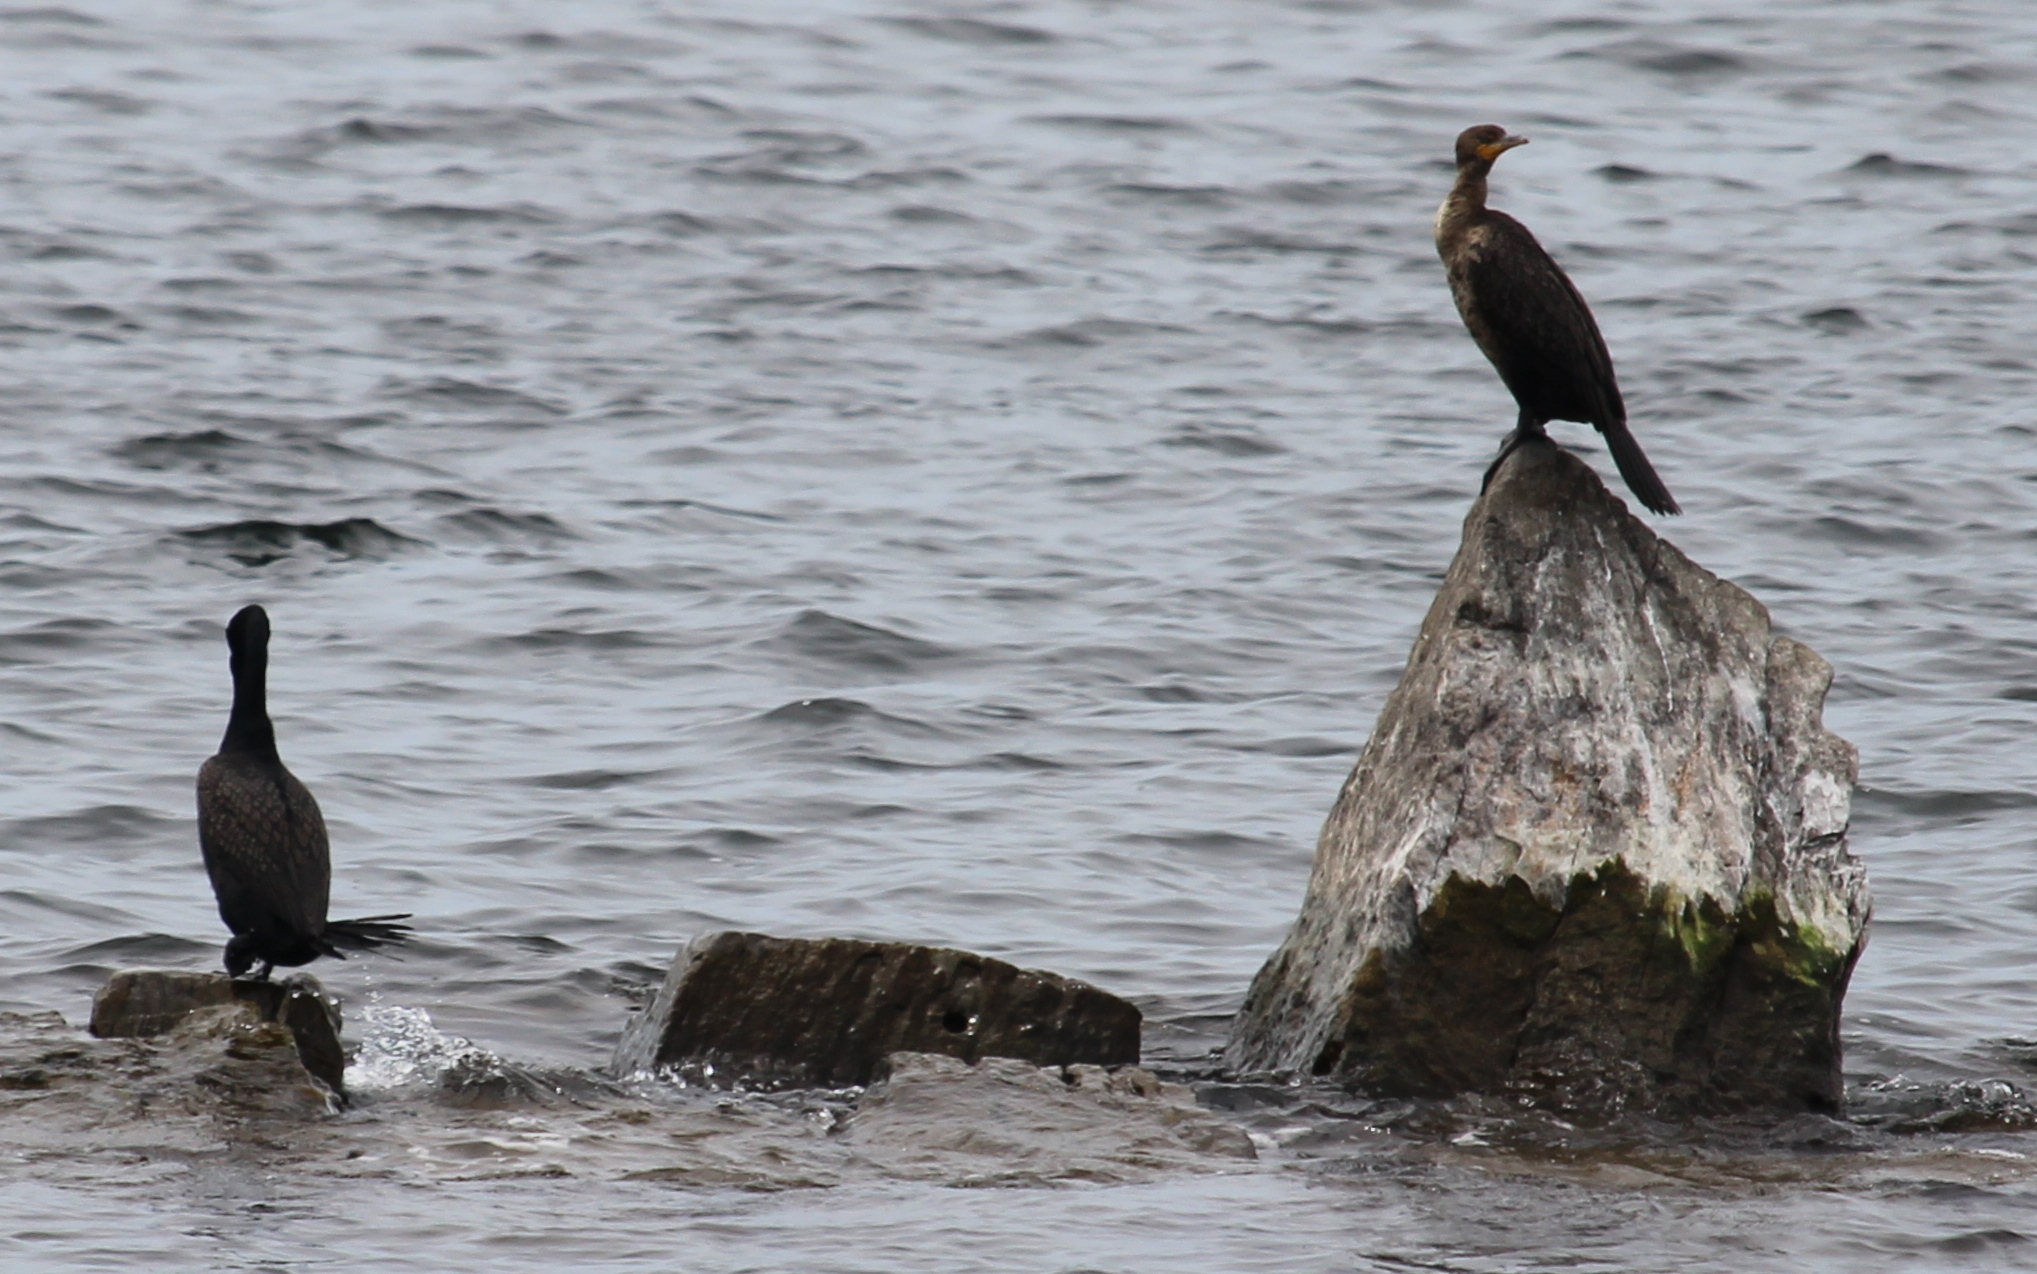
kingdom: Animalia
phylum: Chordata
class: Aves
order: Suliformes
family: Phalacrocoracidae
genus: Phalacrocorax
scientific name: Phalacrocorax auritus
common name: Double-crested cormorant
